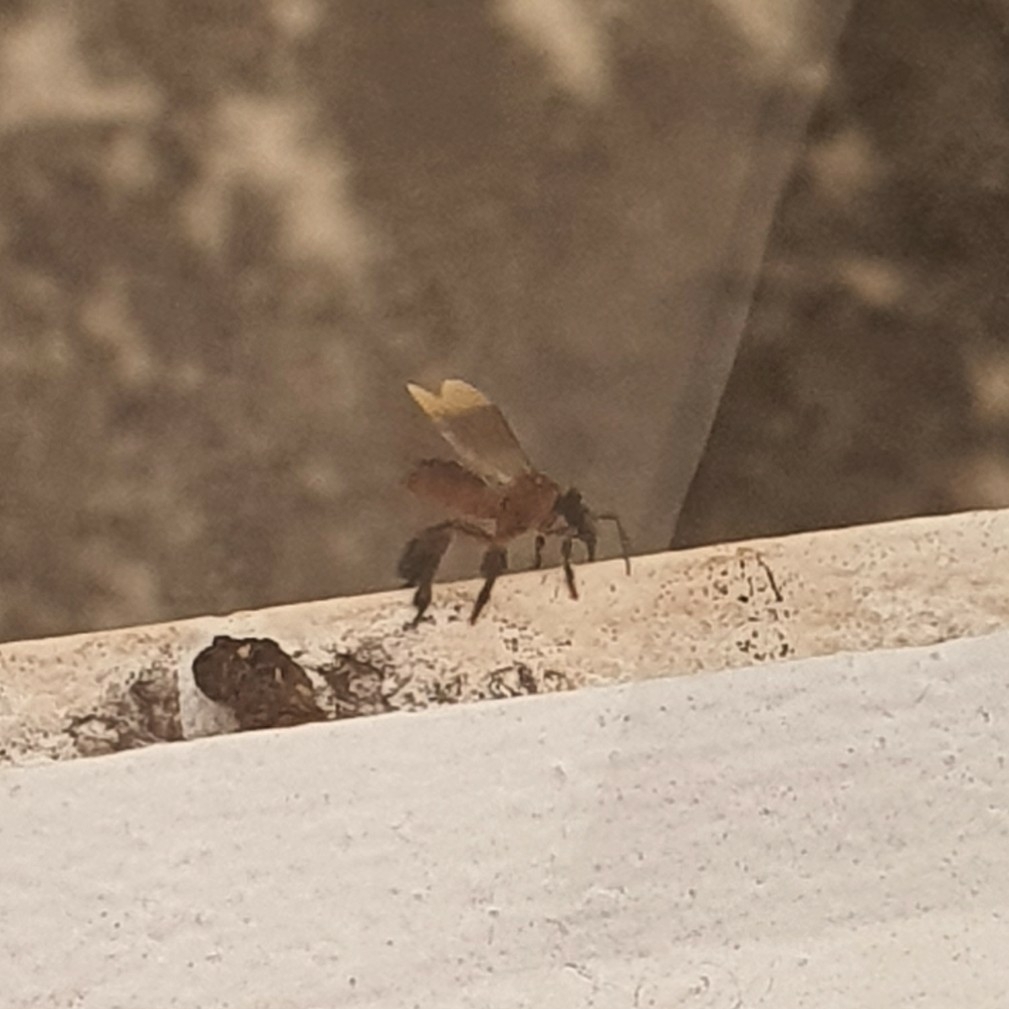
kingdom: Animalia
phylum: Arthropoda
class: Insecta
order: Hymenoptera
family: Apidae
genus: Geniotrigona
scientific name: Geniotrigona thoracica
